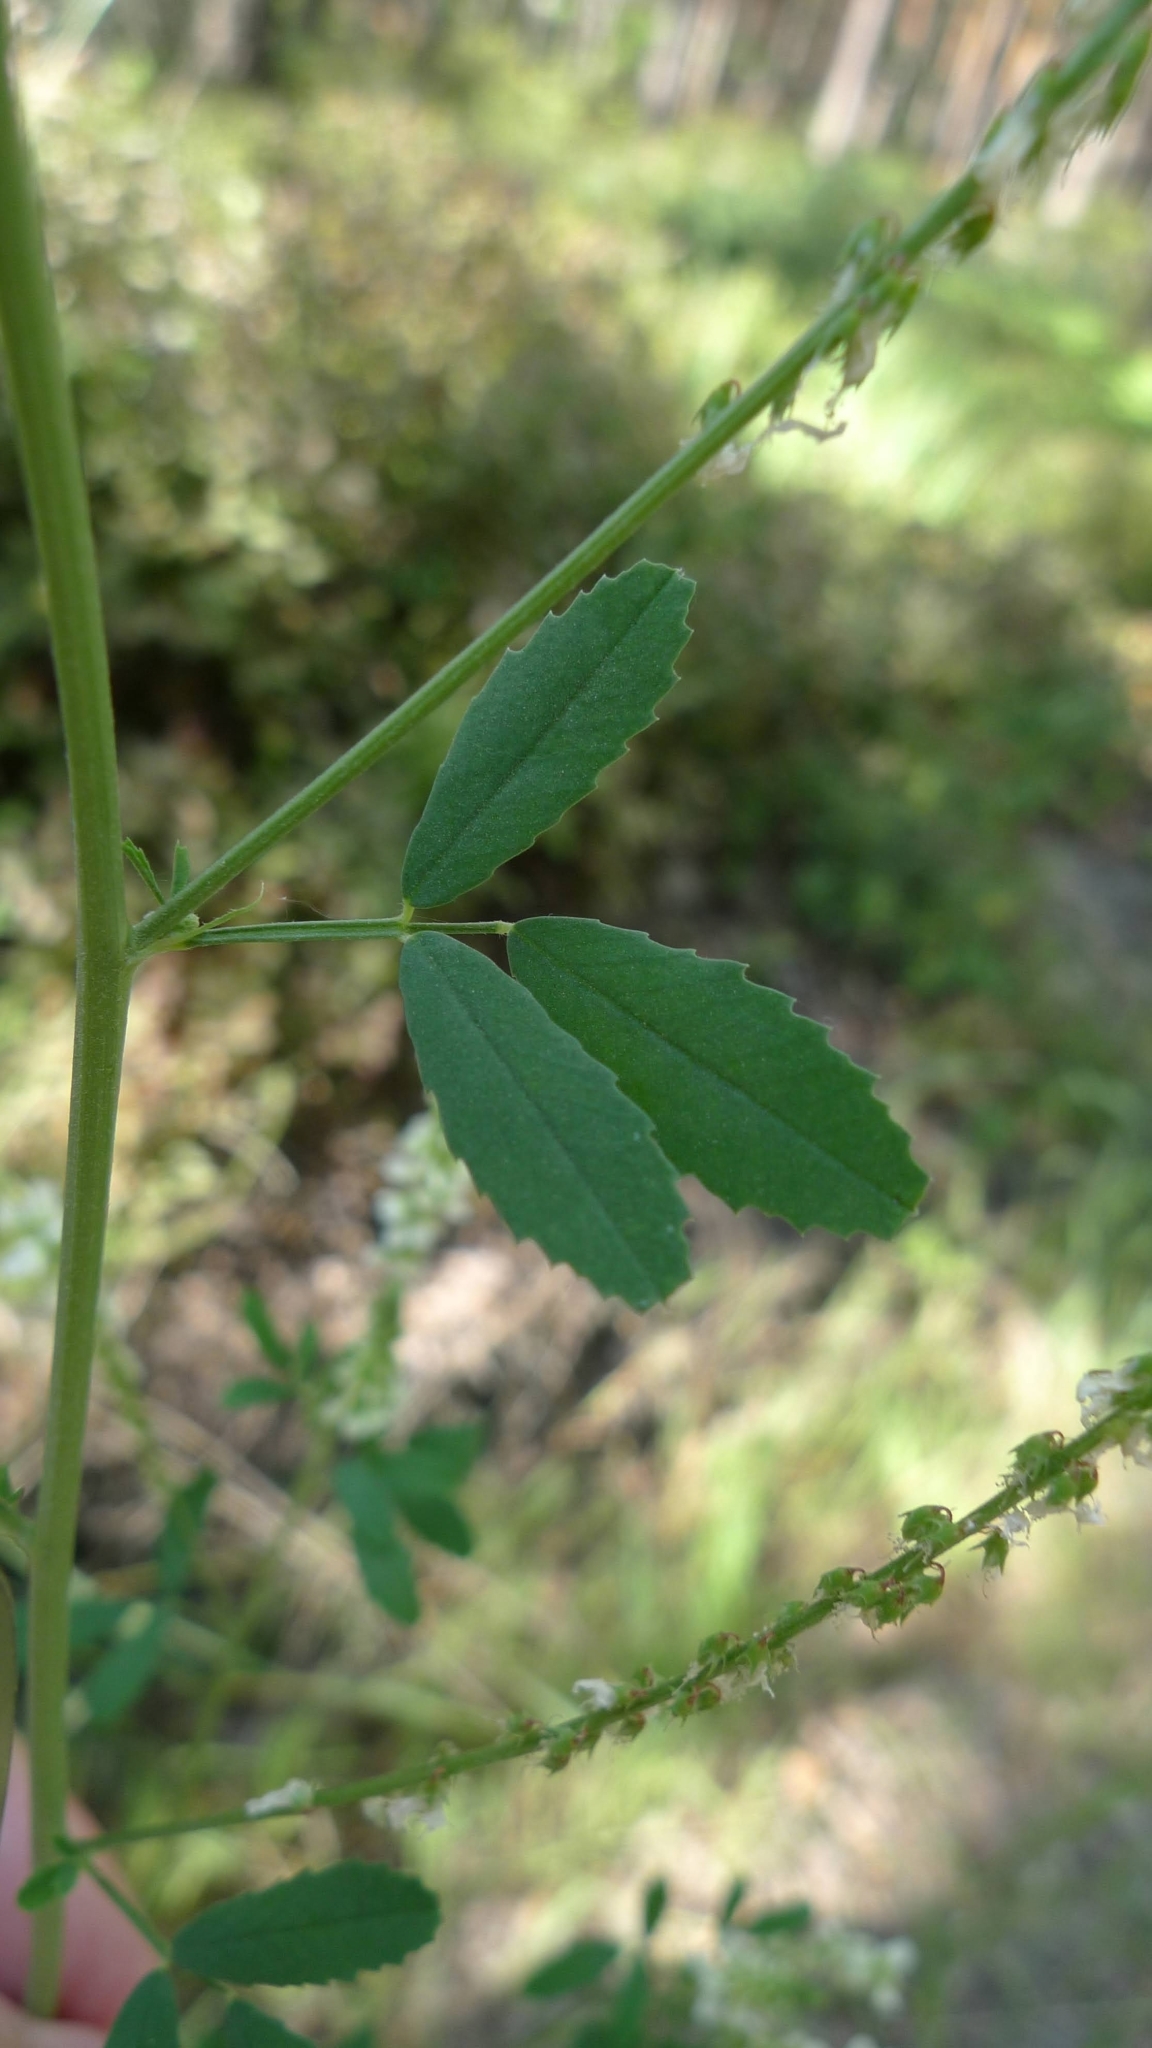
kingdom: Plantae
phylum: Tracheophyta
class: Magnoliopsida
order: Fabales
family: Fabaceae
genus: Melilotus
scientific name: Melilotus albus
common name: White melilot
